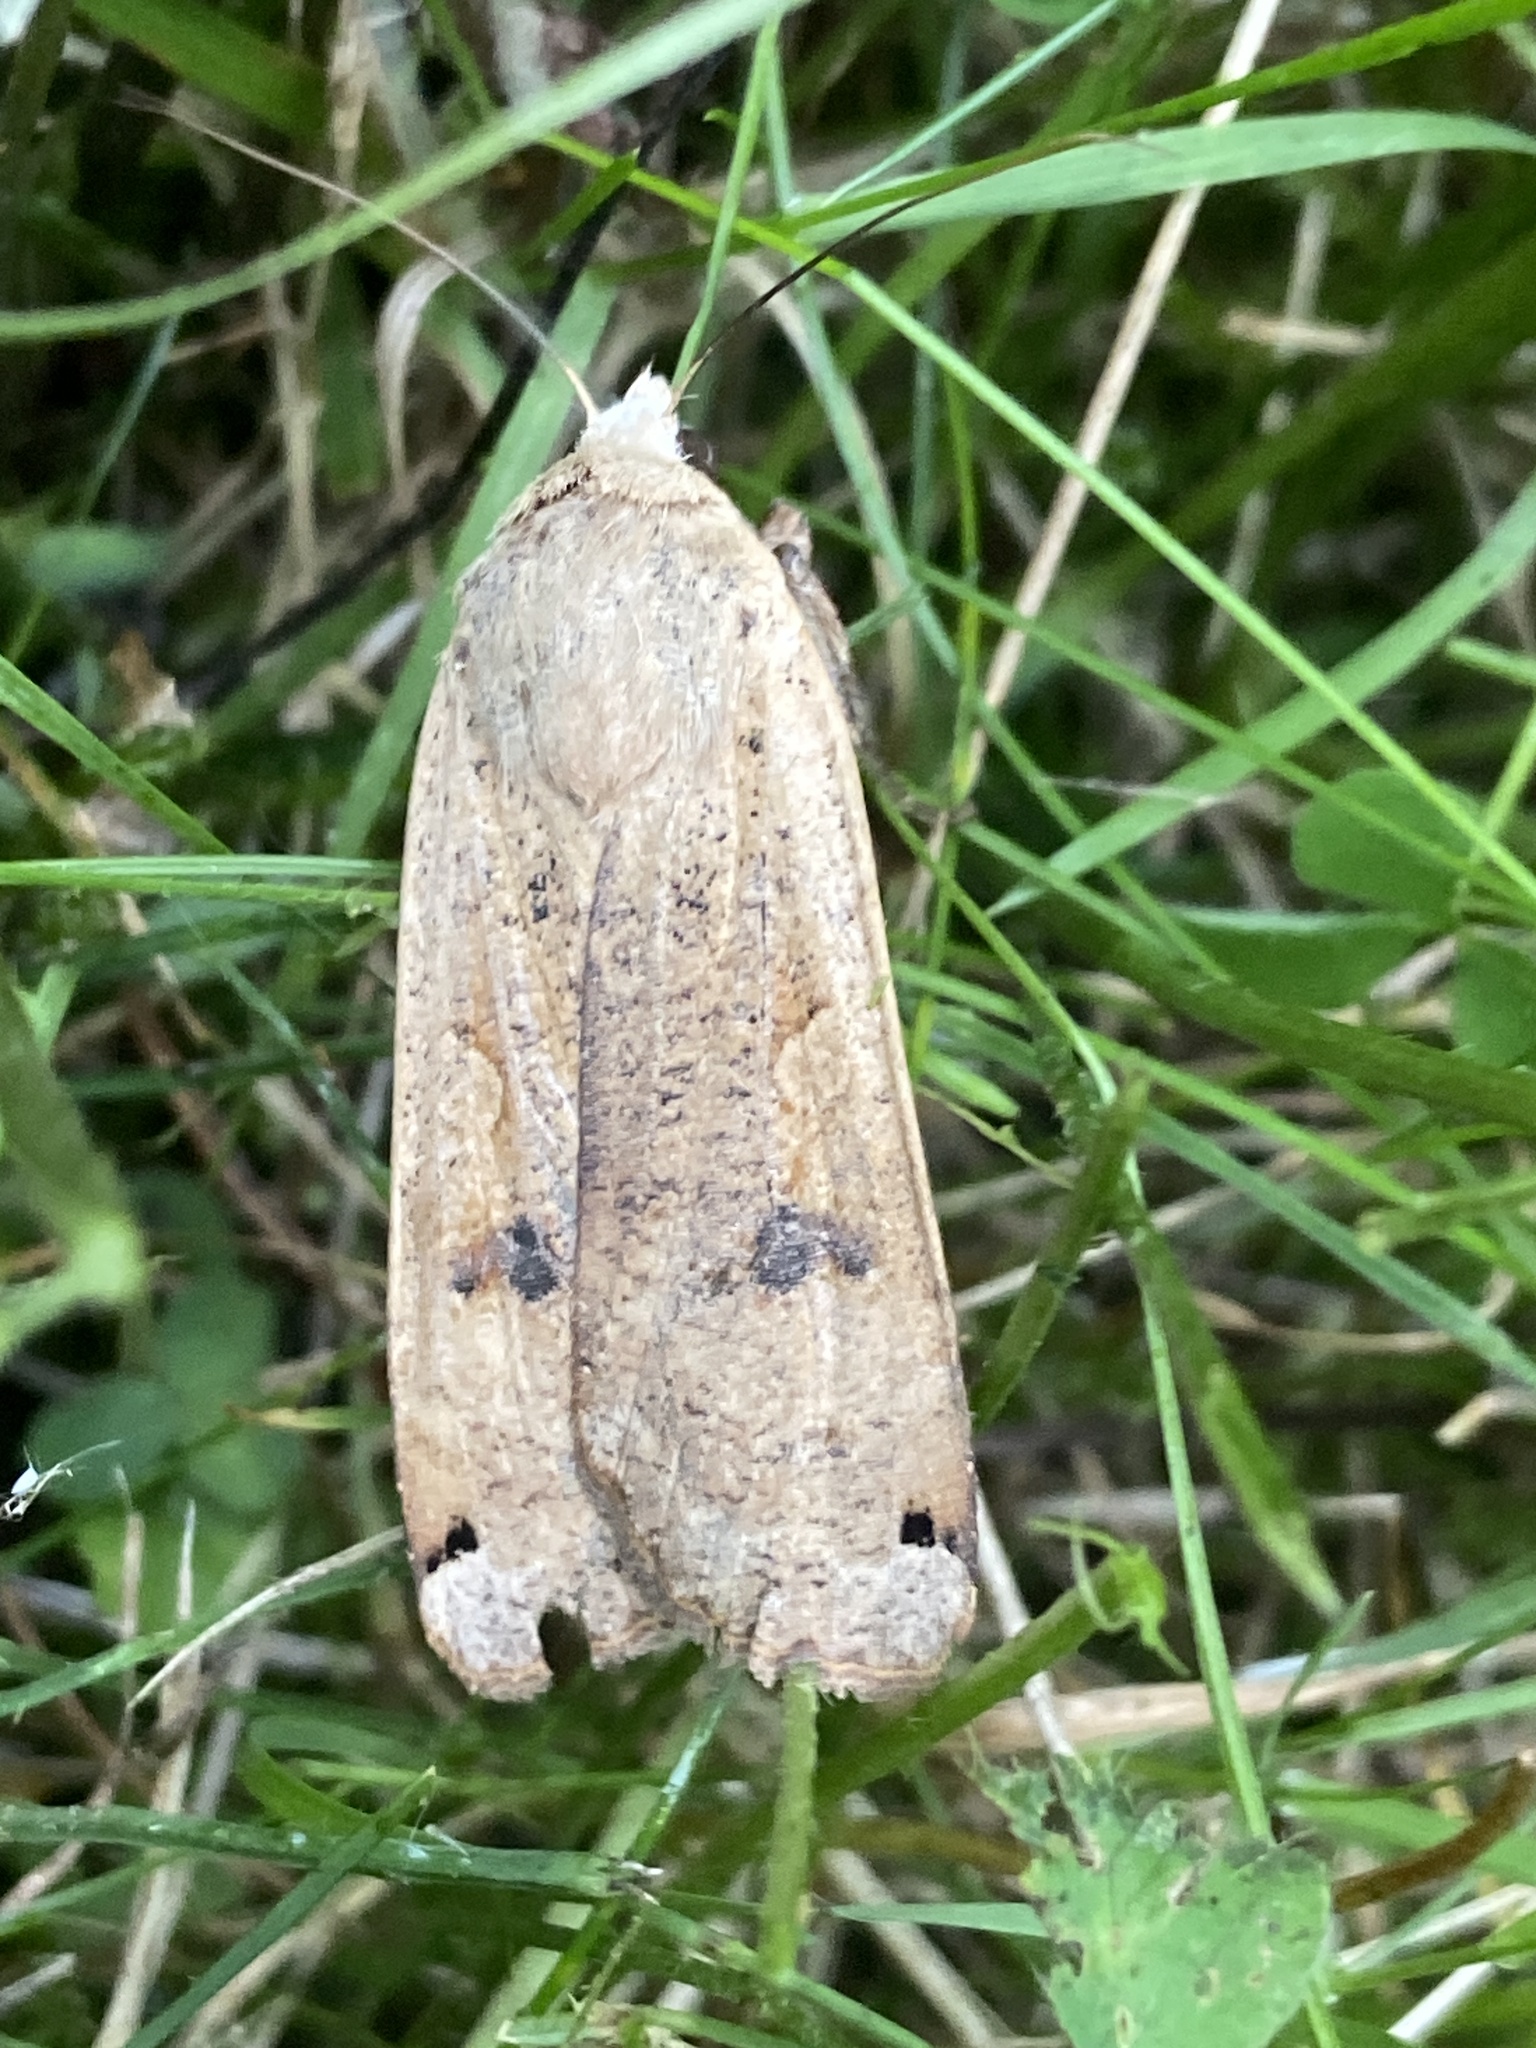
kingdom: Animalia
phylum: Arthropoda
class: Insecta
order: Lepidoptera
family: Noctuidae
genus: Noctua
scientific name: Noctua pronuba
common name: Large yellow underwing
